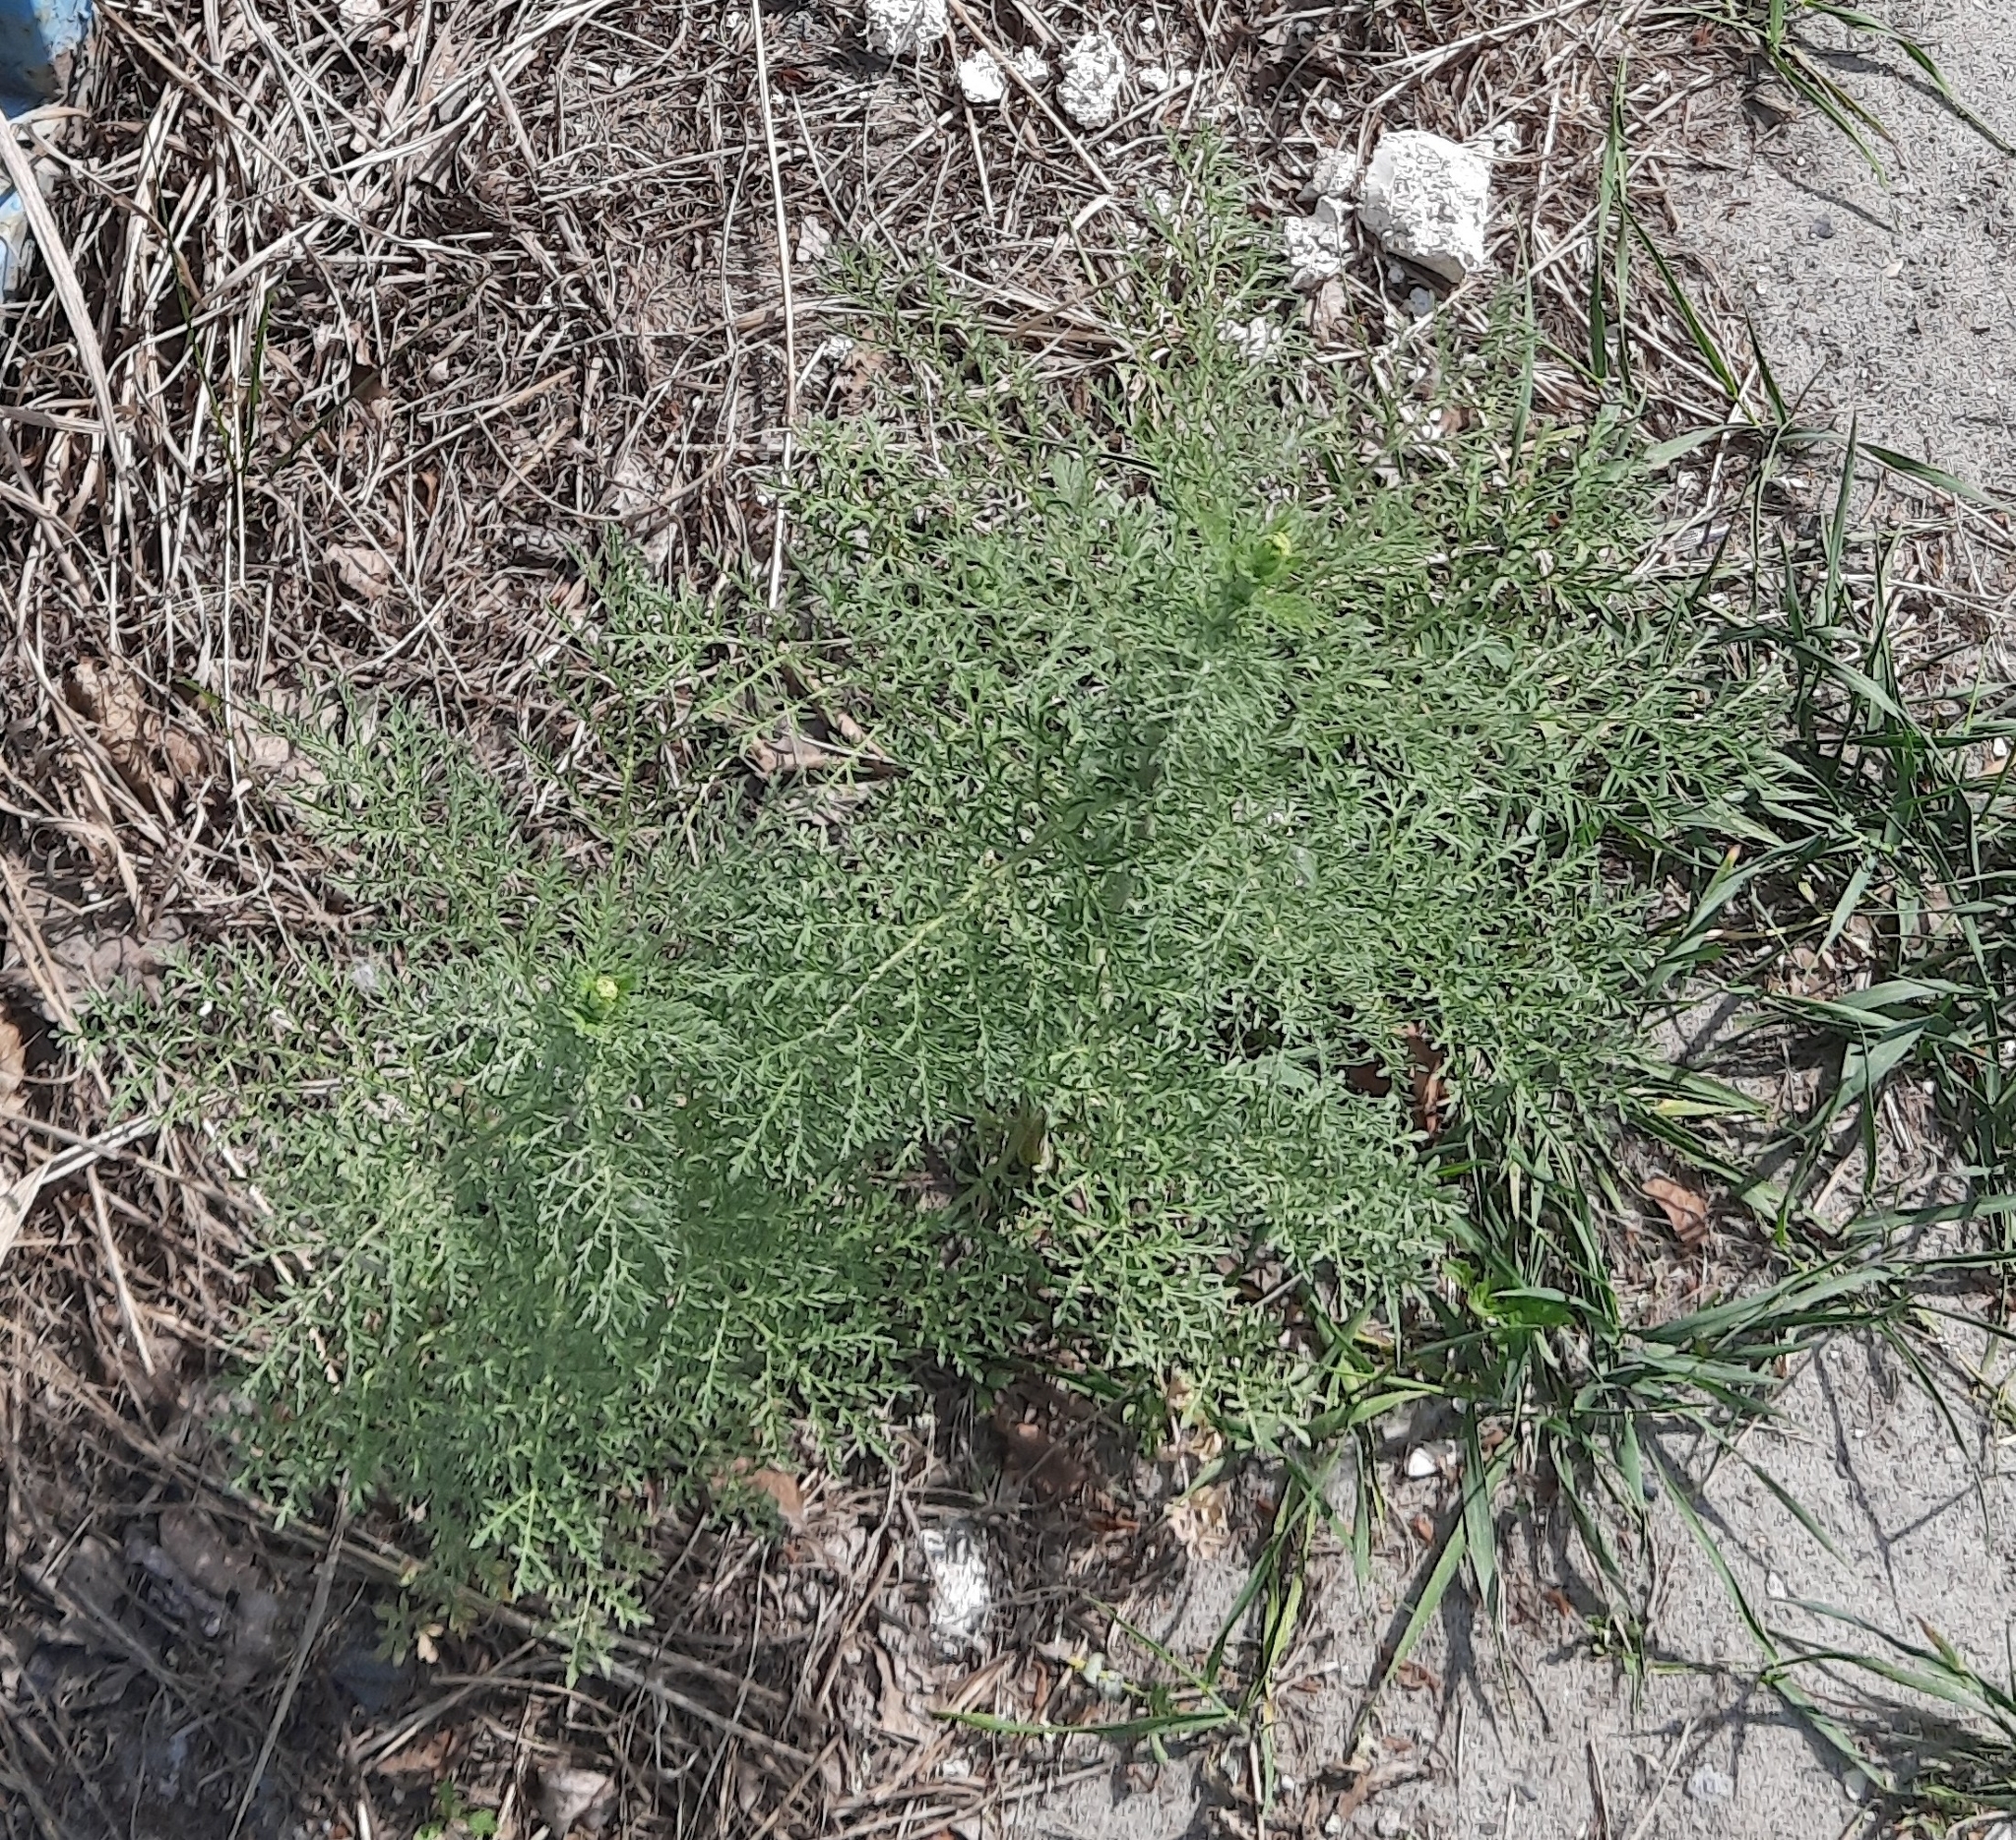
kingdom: Plantae
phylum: Tracheophyta
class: Magnoliopsida
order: Brassicales
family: Brassicaceae
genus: Descurainia
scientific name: Descurainia sophia
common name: Flixweed
